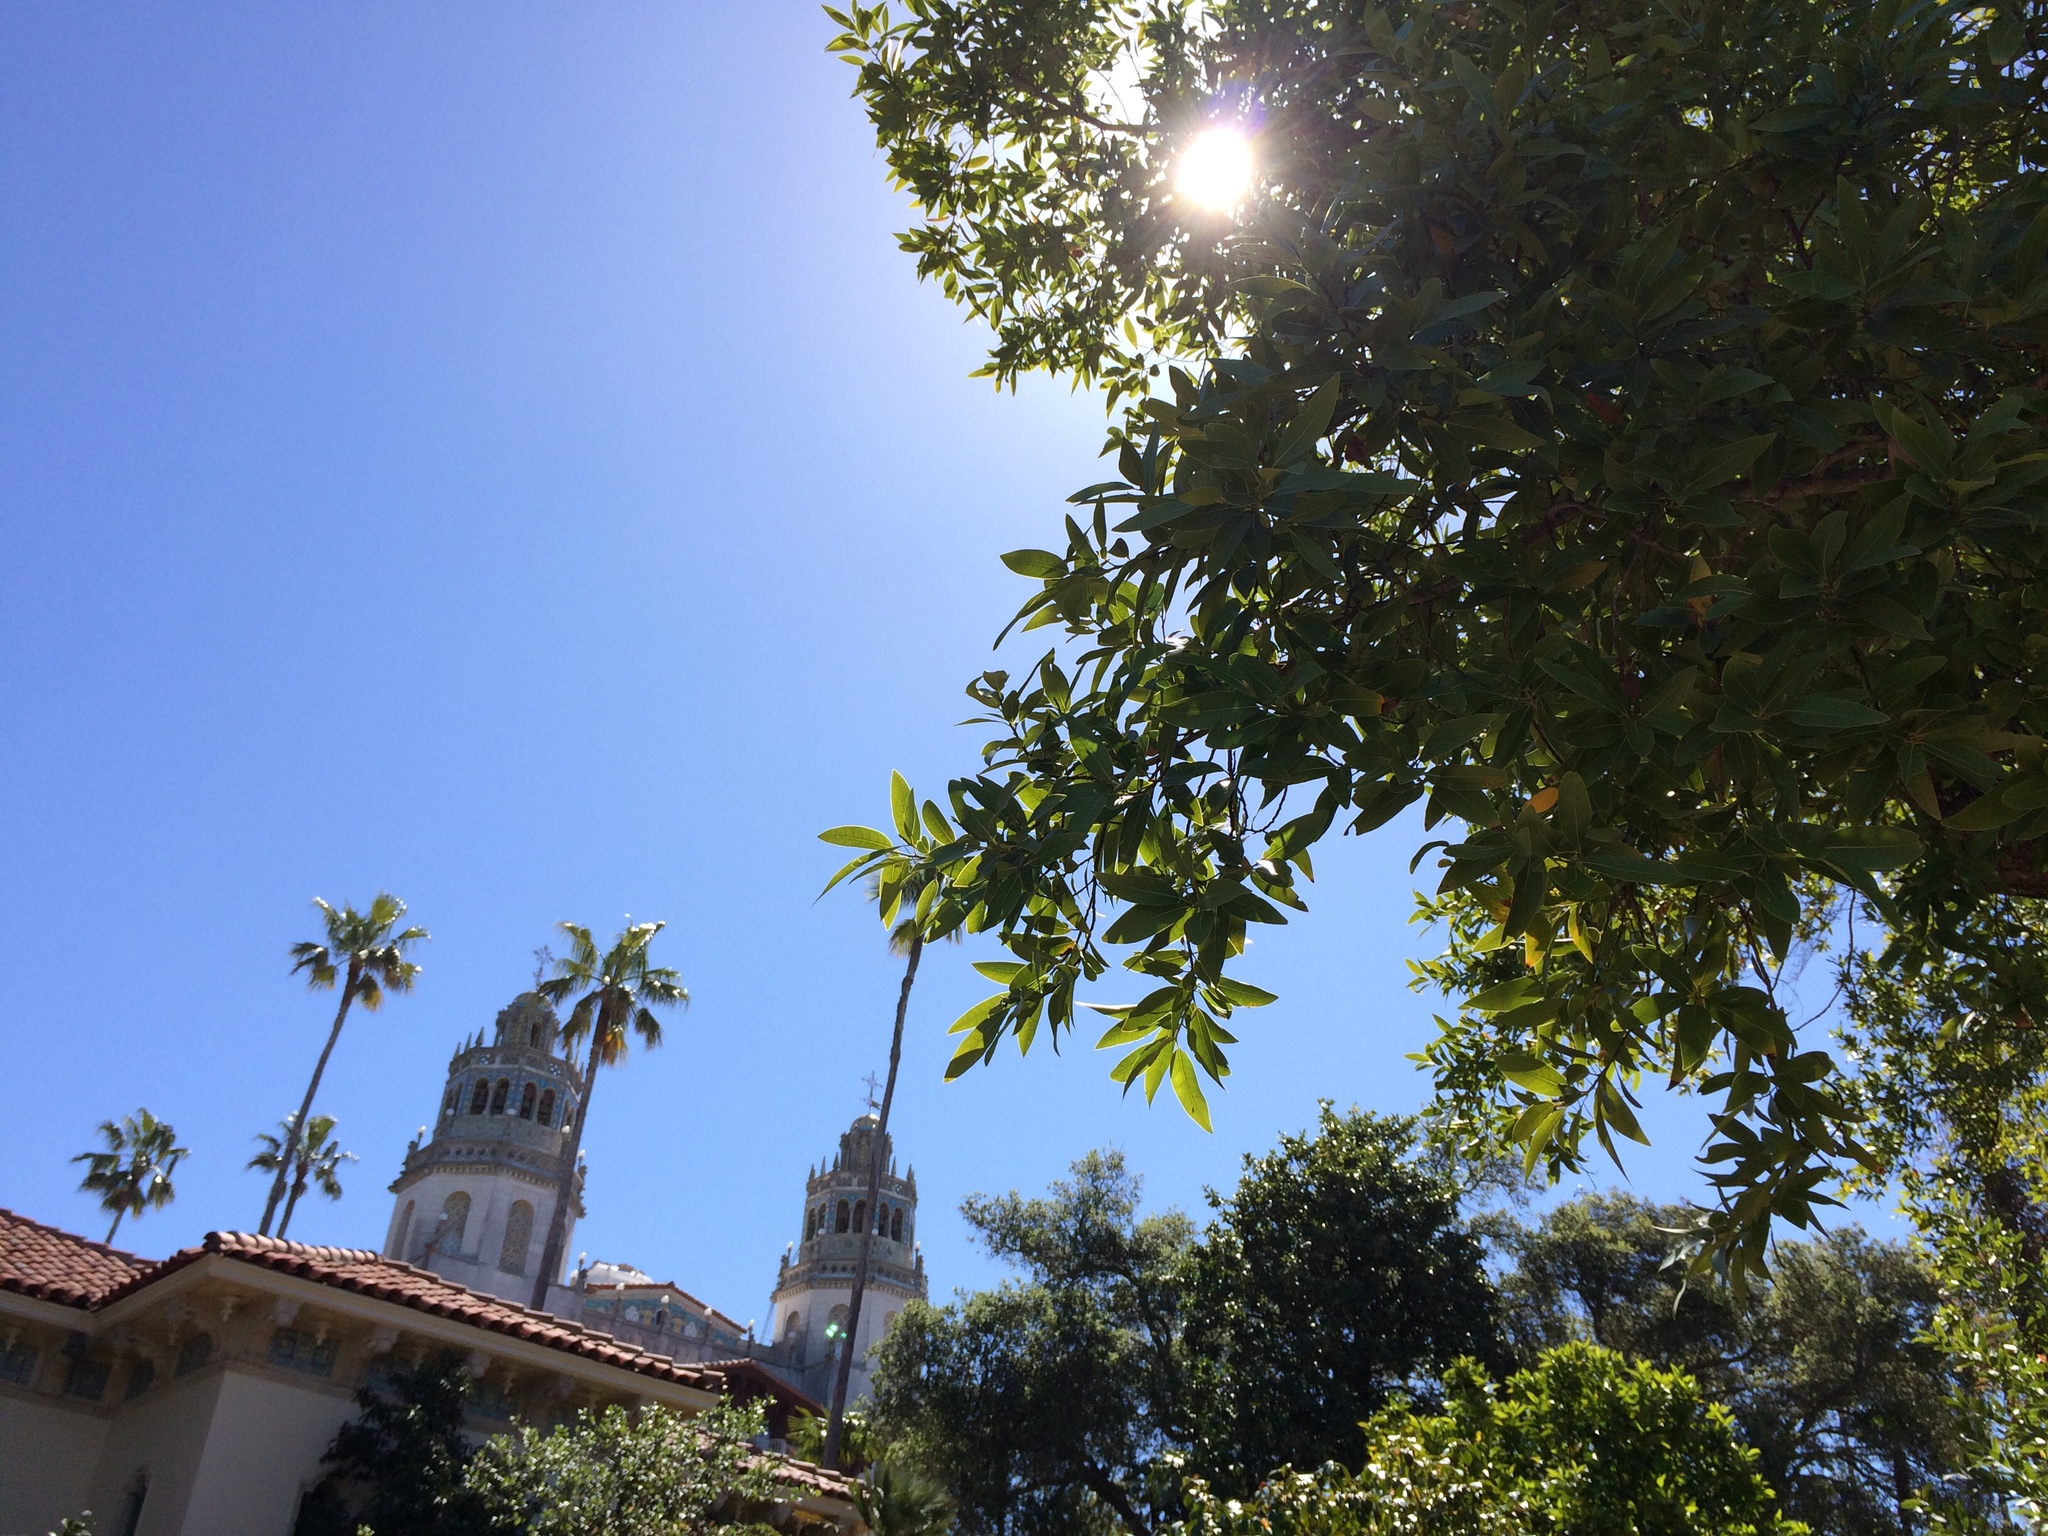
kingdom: Plantae
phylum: Tracheophyta
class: Magnoliopsida
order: Laurales
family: Lauraceae
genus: Umbellularia
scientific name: Umbellularia californica
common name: California bay
